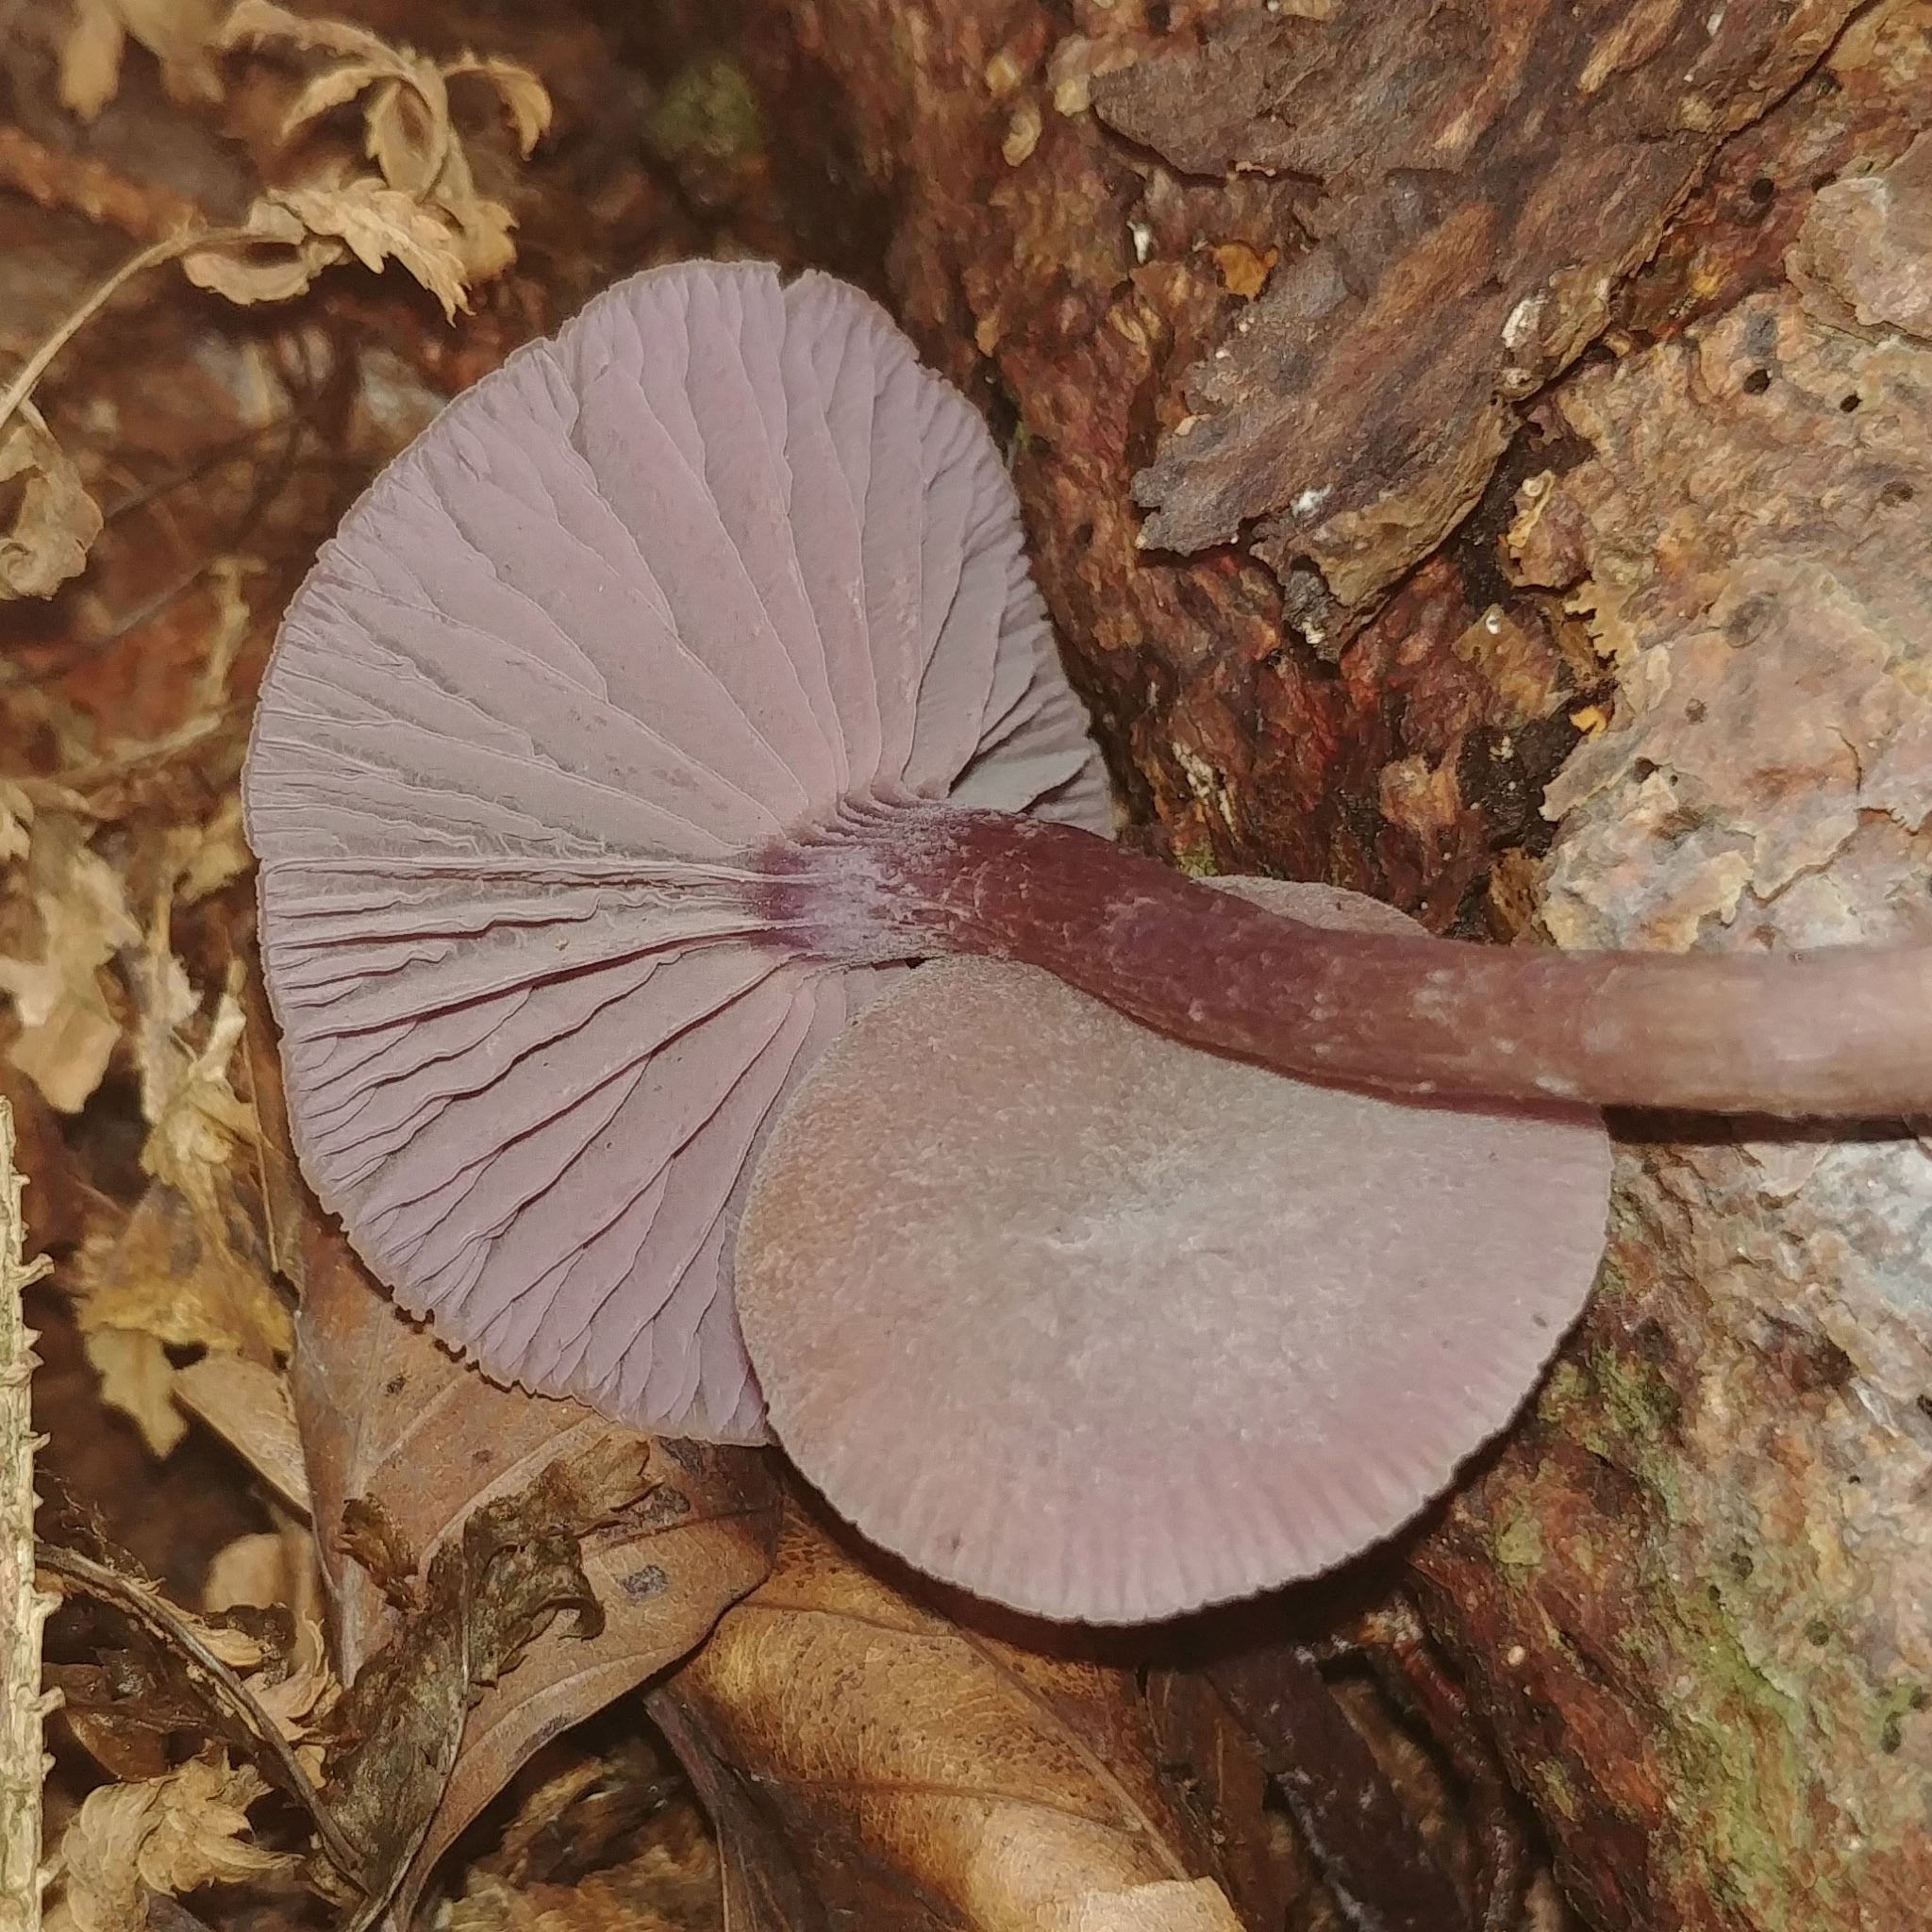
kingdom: Fungi
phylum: Basidiomycota
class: Agaricomycetes
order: Agaricales
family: Hydnangiaceae
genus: Laccaria
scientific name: Laccaria amethystina
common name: Amethyst deceiver
